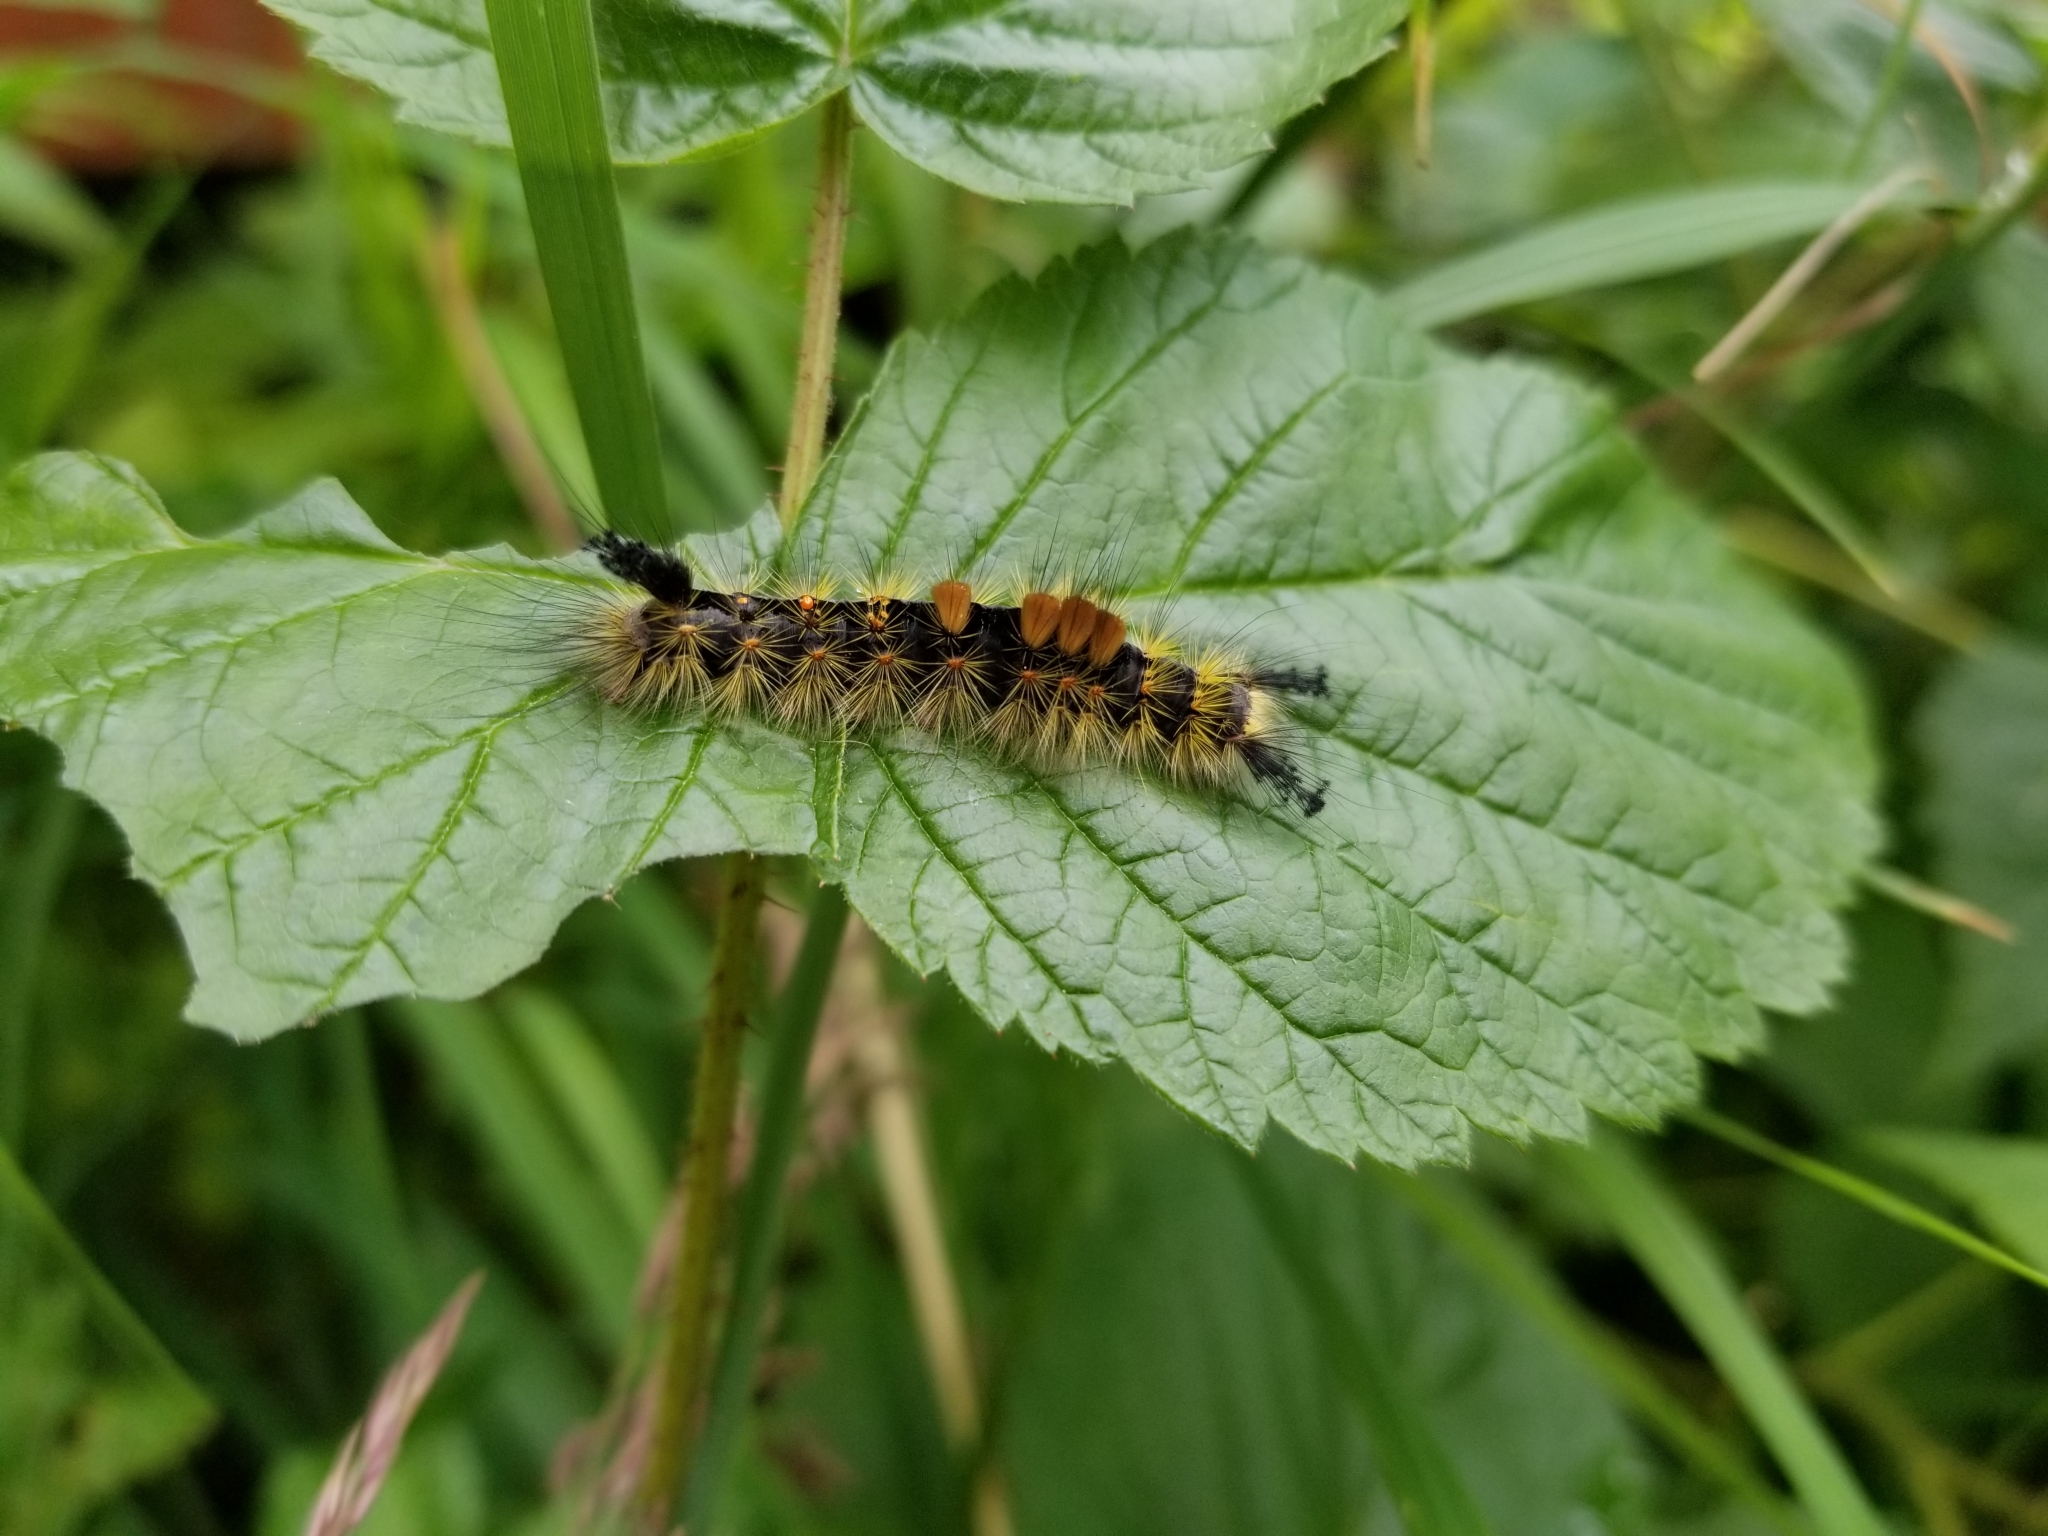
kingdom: Animalia
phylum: Arthropoda
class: Insecta
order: Lepidoptera
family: Erebidae
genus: Orgyia
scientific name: Orgyia antiqua
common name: Vapourer
